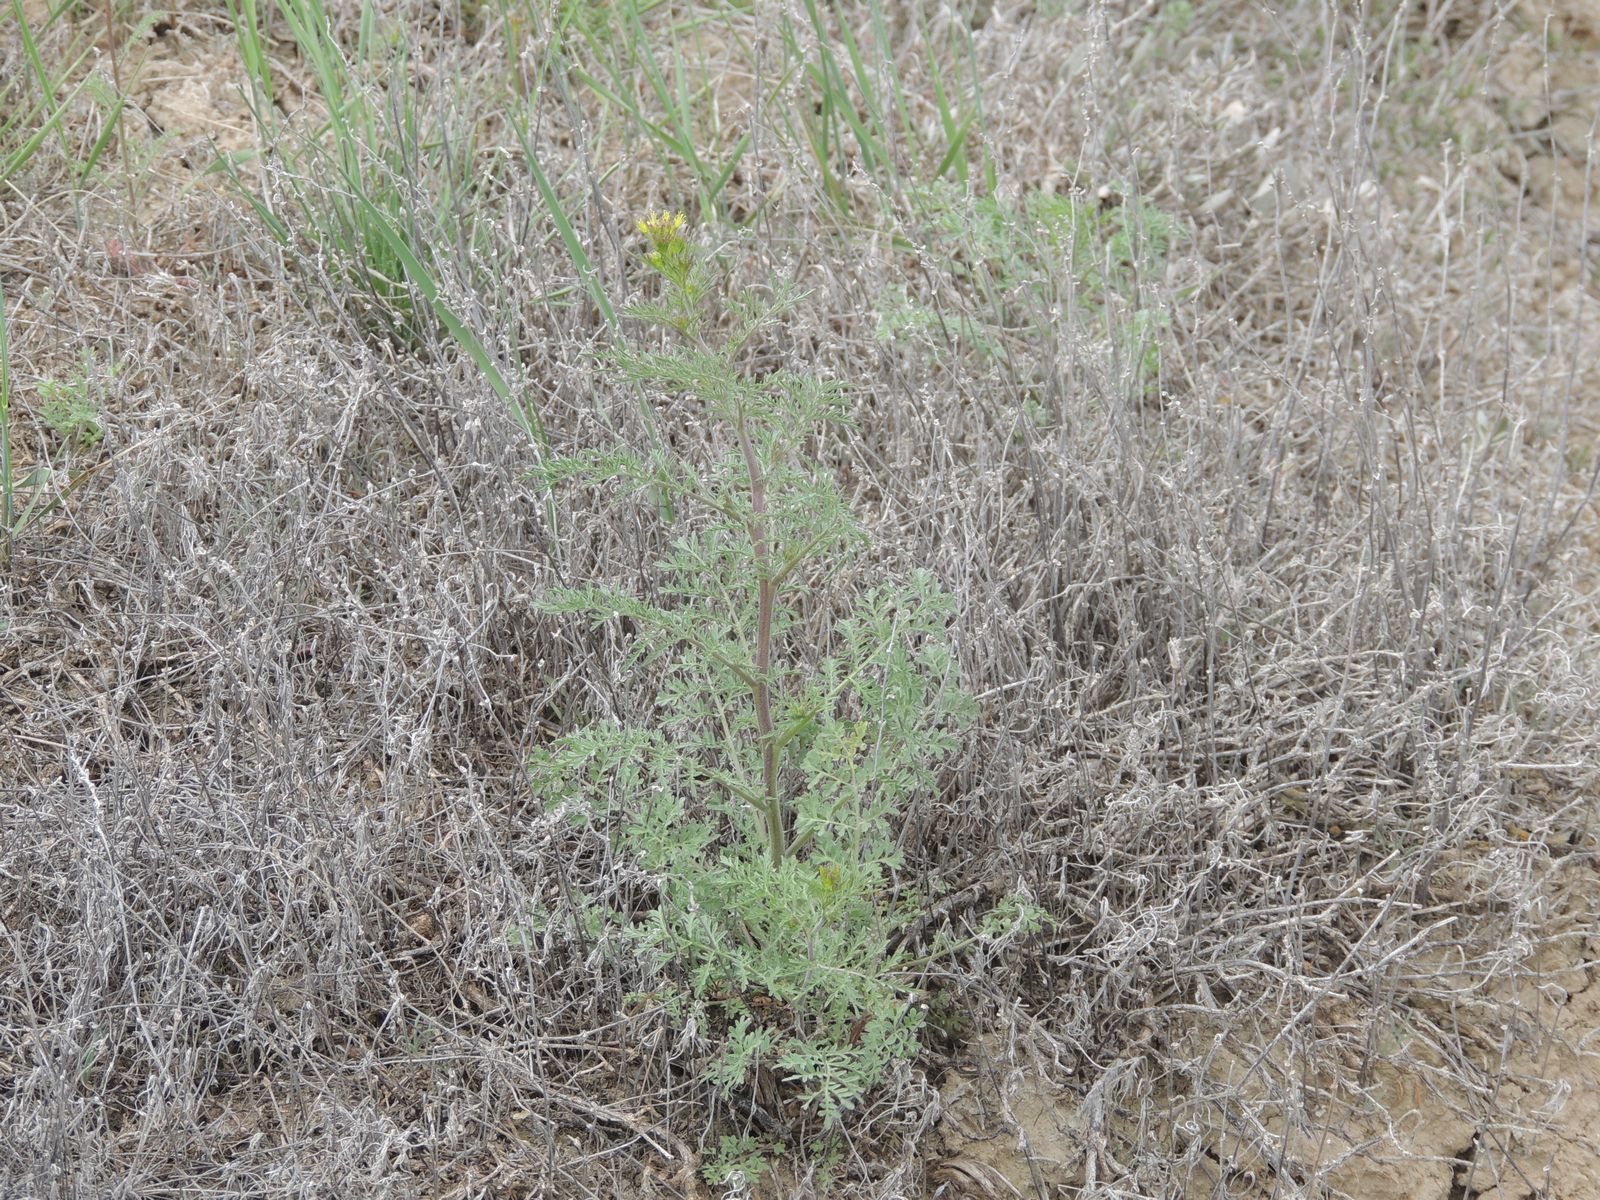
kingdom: Plantae
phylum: Tracheophyta
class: Magnoliopsida
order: Brassicales
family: Brassicaceae
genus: Descurainia
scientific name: Descurainia sophia
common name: Flixweed
